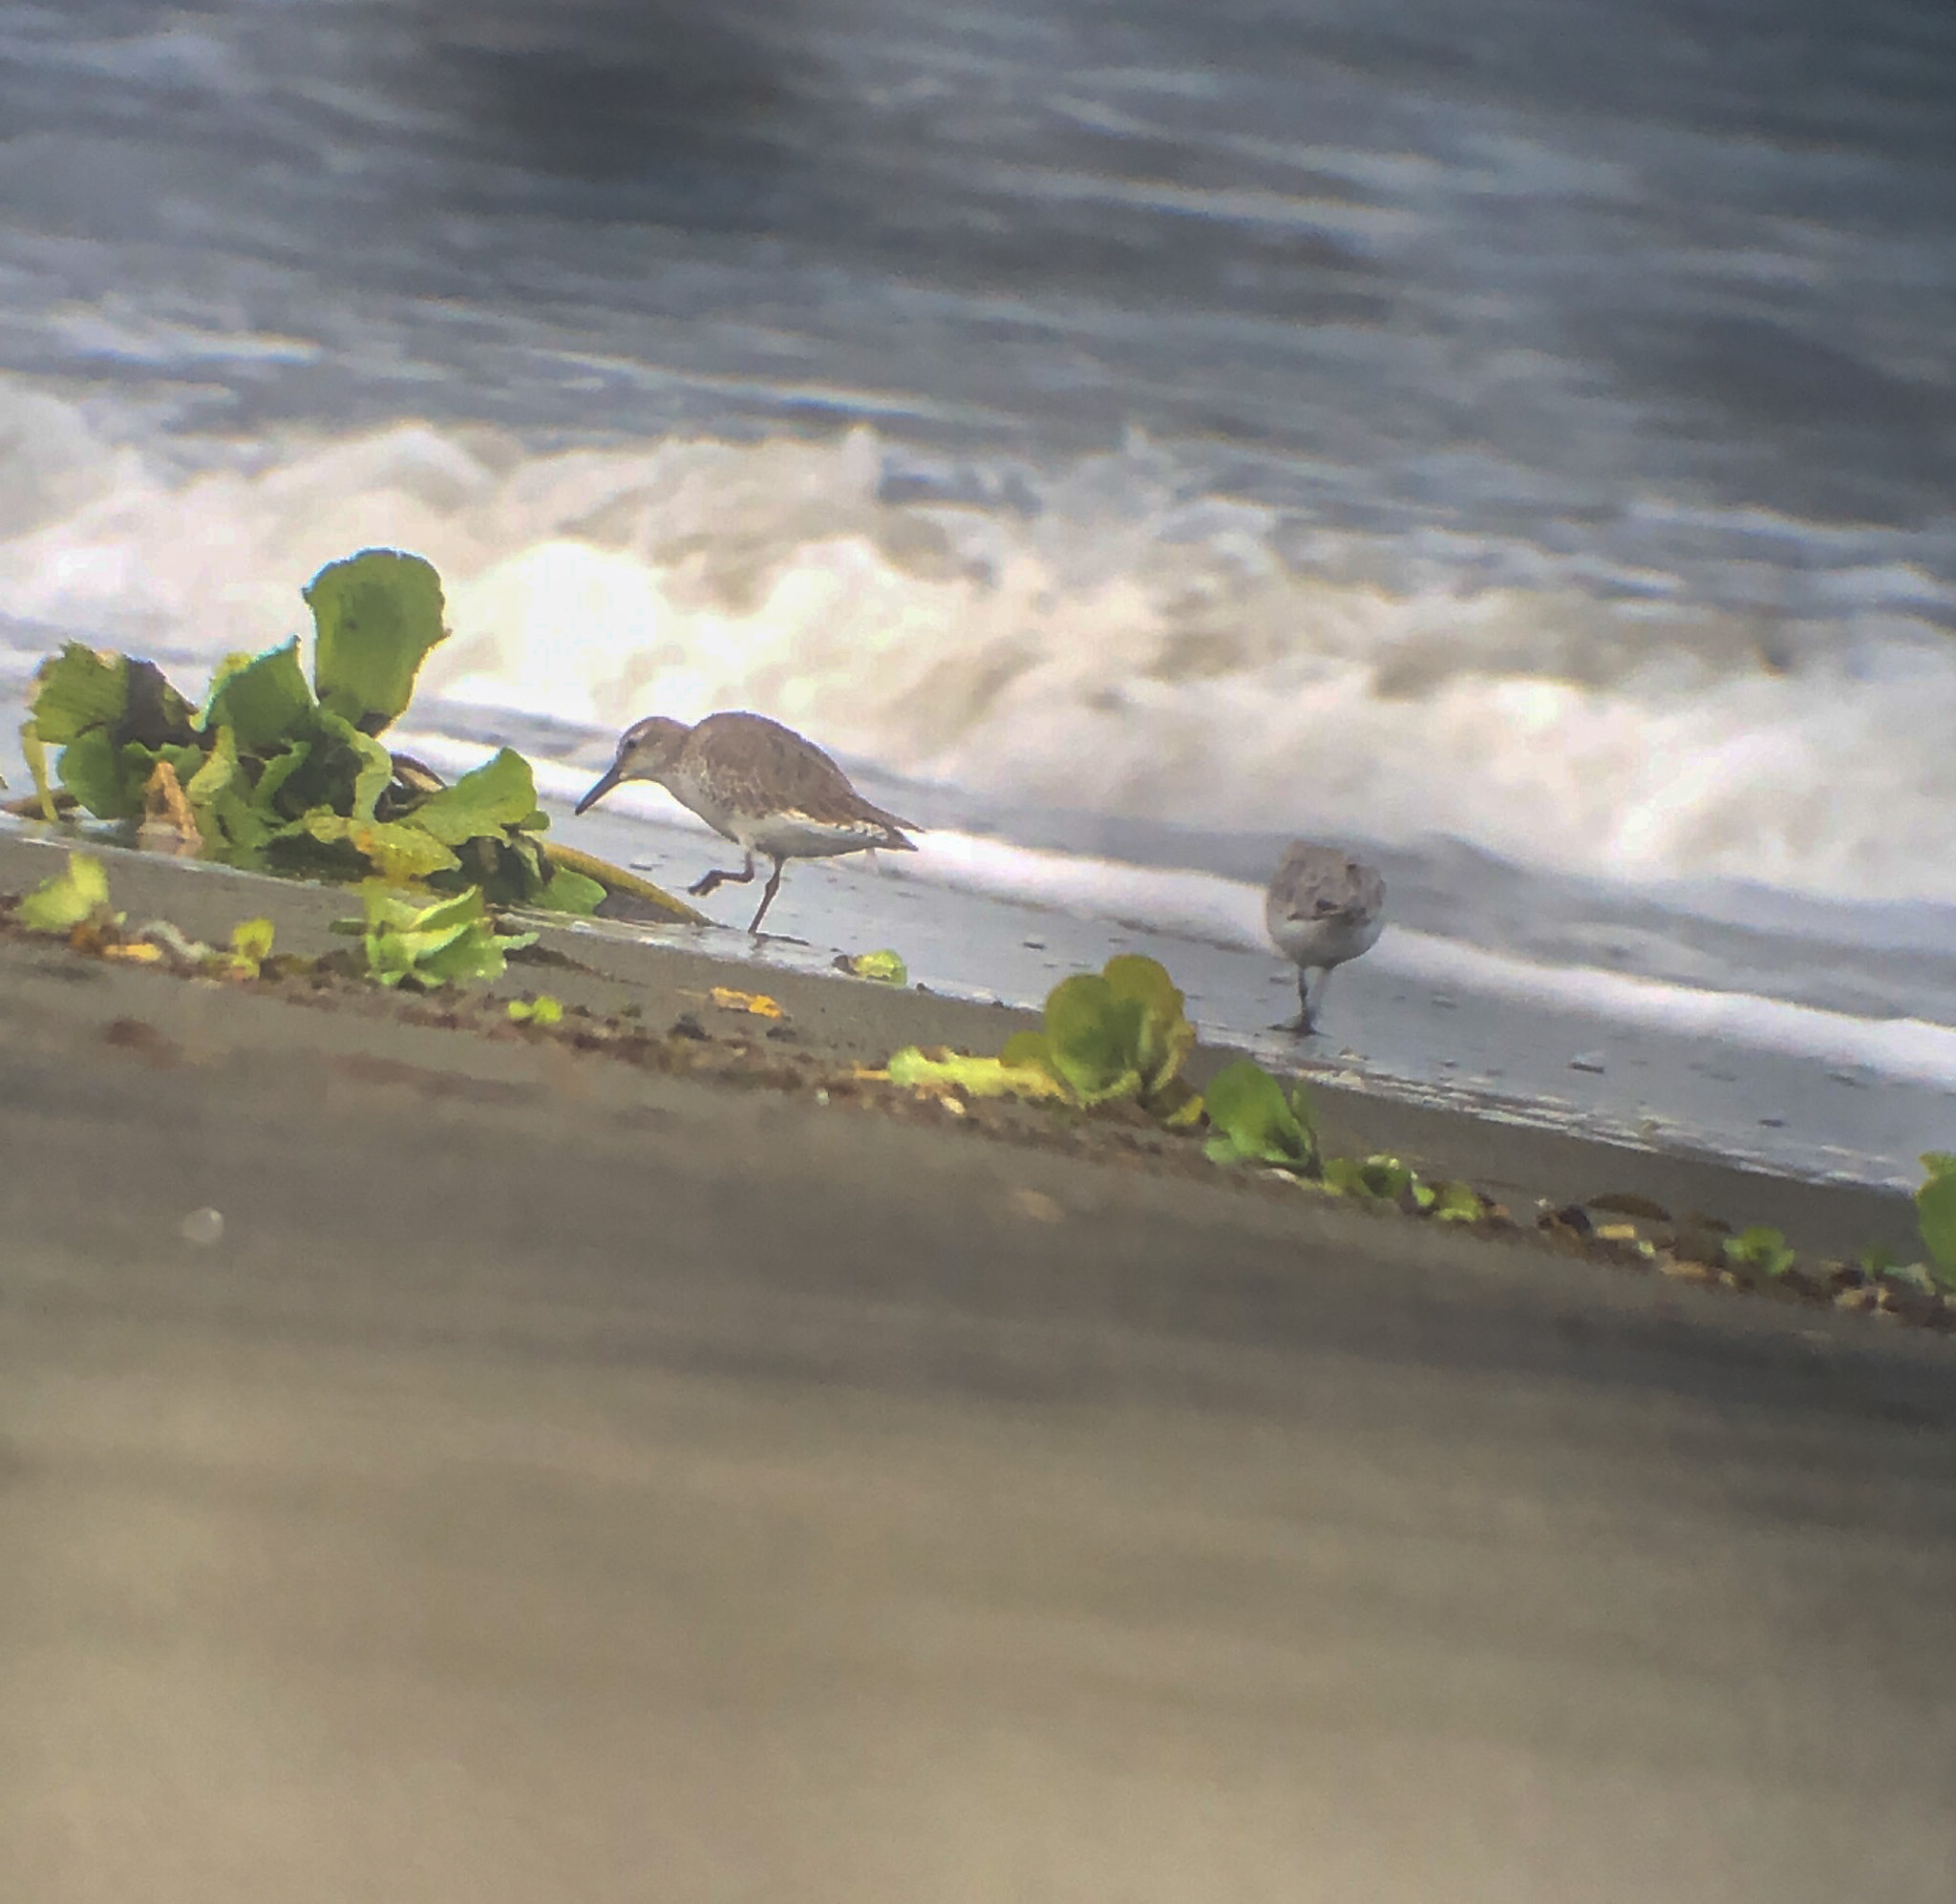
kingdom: Animalia
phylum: Chordata
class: Aves
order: Charadriiformes
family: Scolopacidae
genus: Calidris
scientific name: Calidris canutus
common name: Red knot
